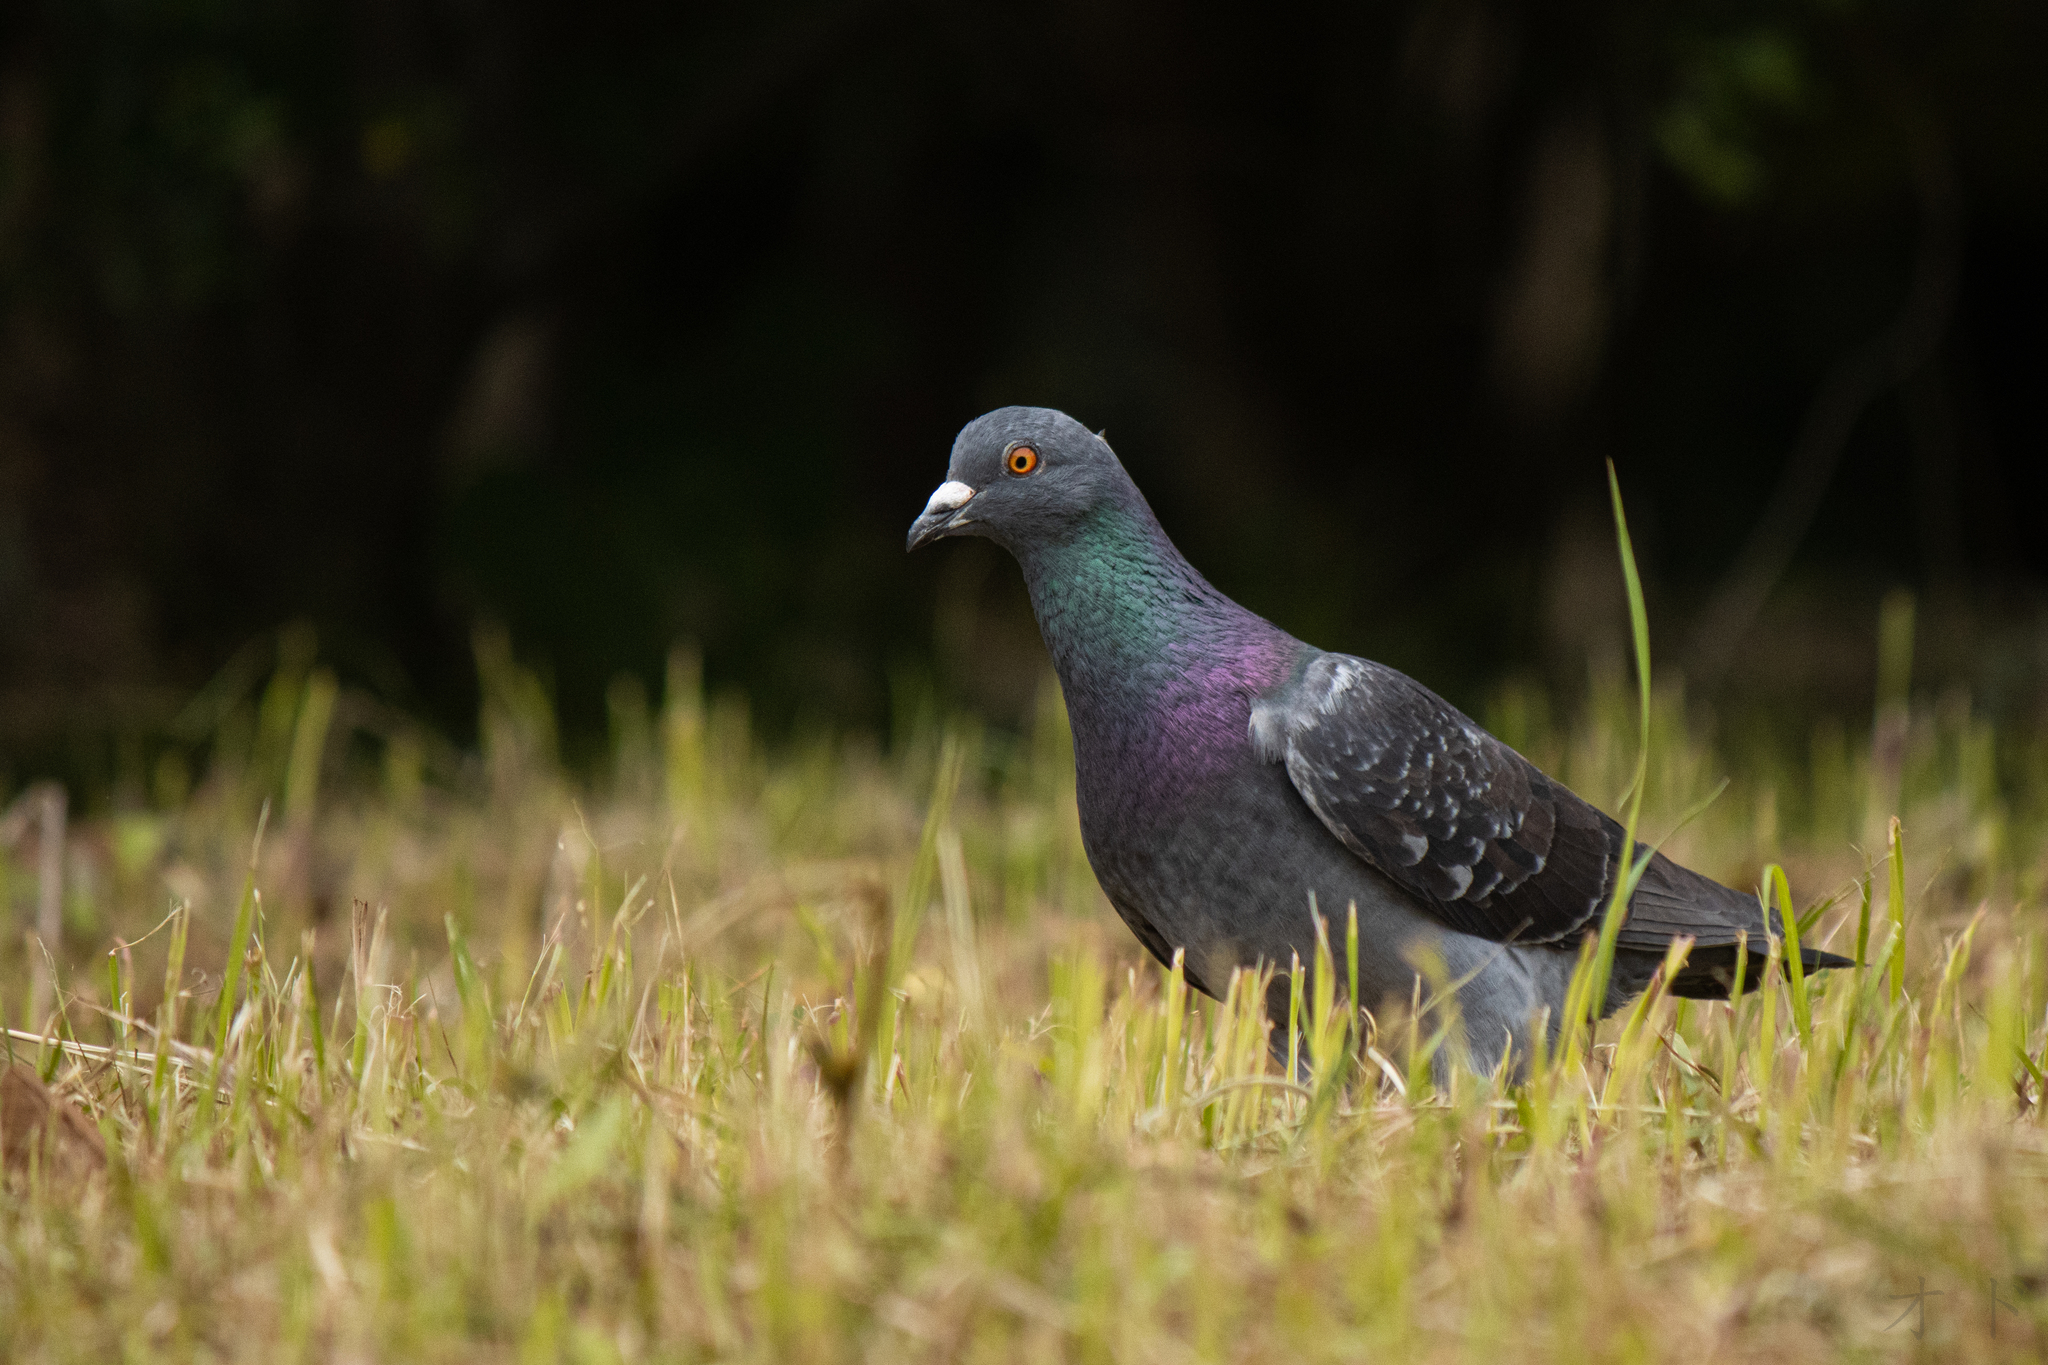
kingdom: Animalia
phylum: Chordata
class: Aves
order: Columbiformes
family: Columbidae
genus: Columba
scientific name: Columba livia
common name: Rock pigeon
